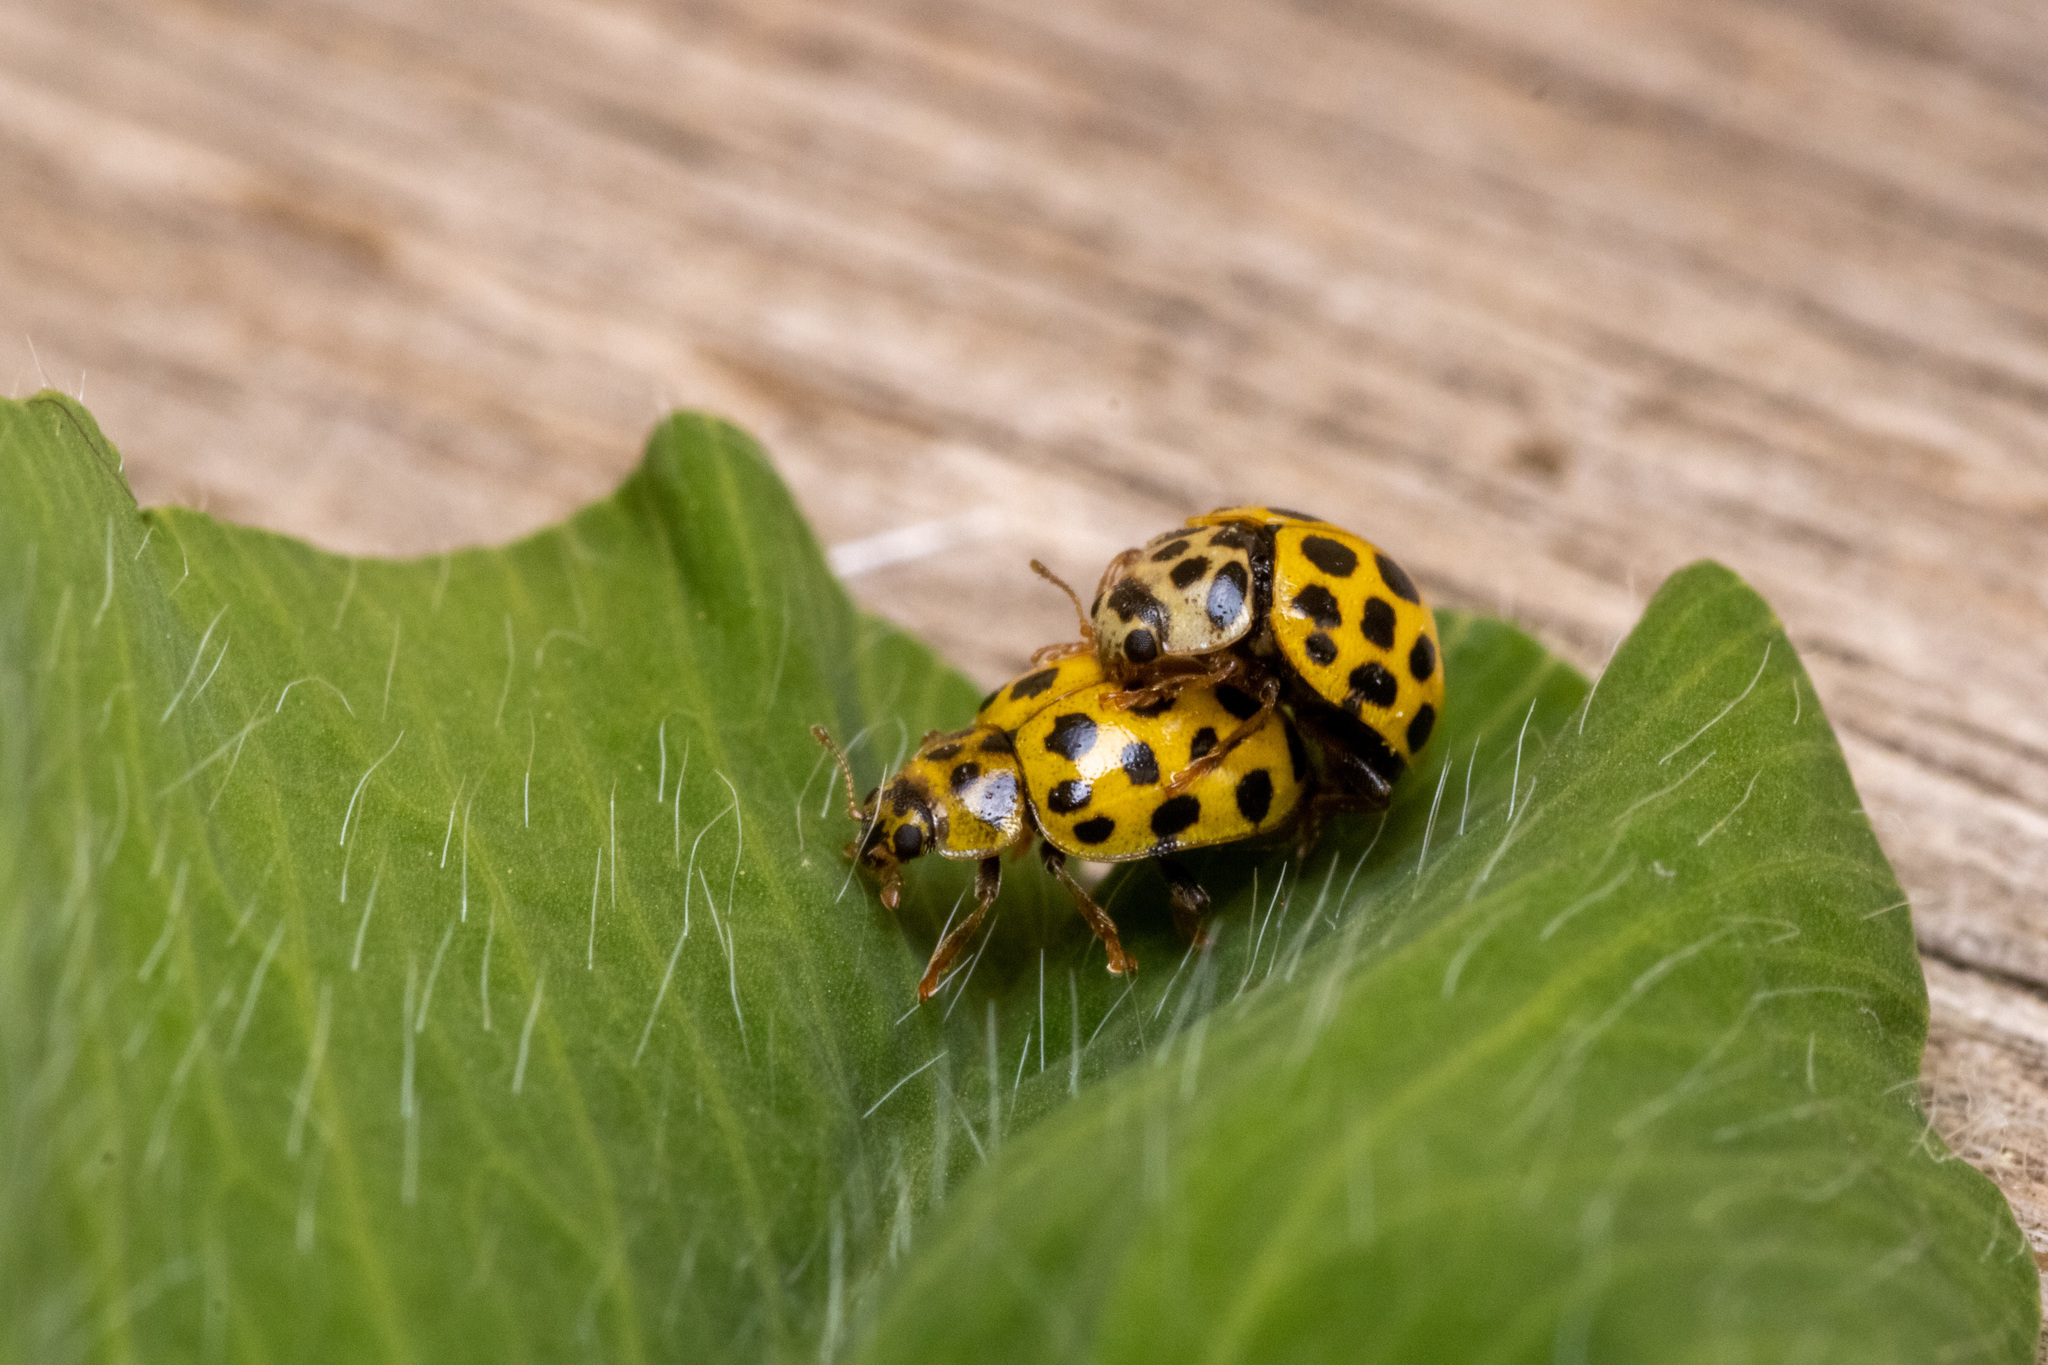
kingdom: Animalia
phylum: Arthropoda
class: Insecta
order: Coleoptera
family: Coccinellidae
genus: Psyllobora
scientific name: Psyllobora vigintiduopunctata
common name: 22-spot ladybird
